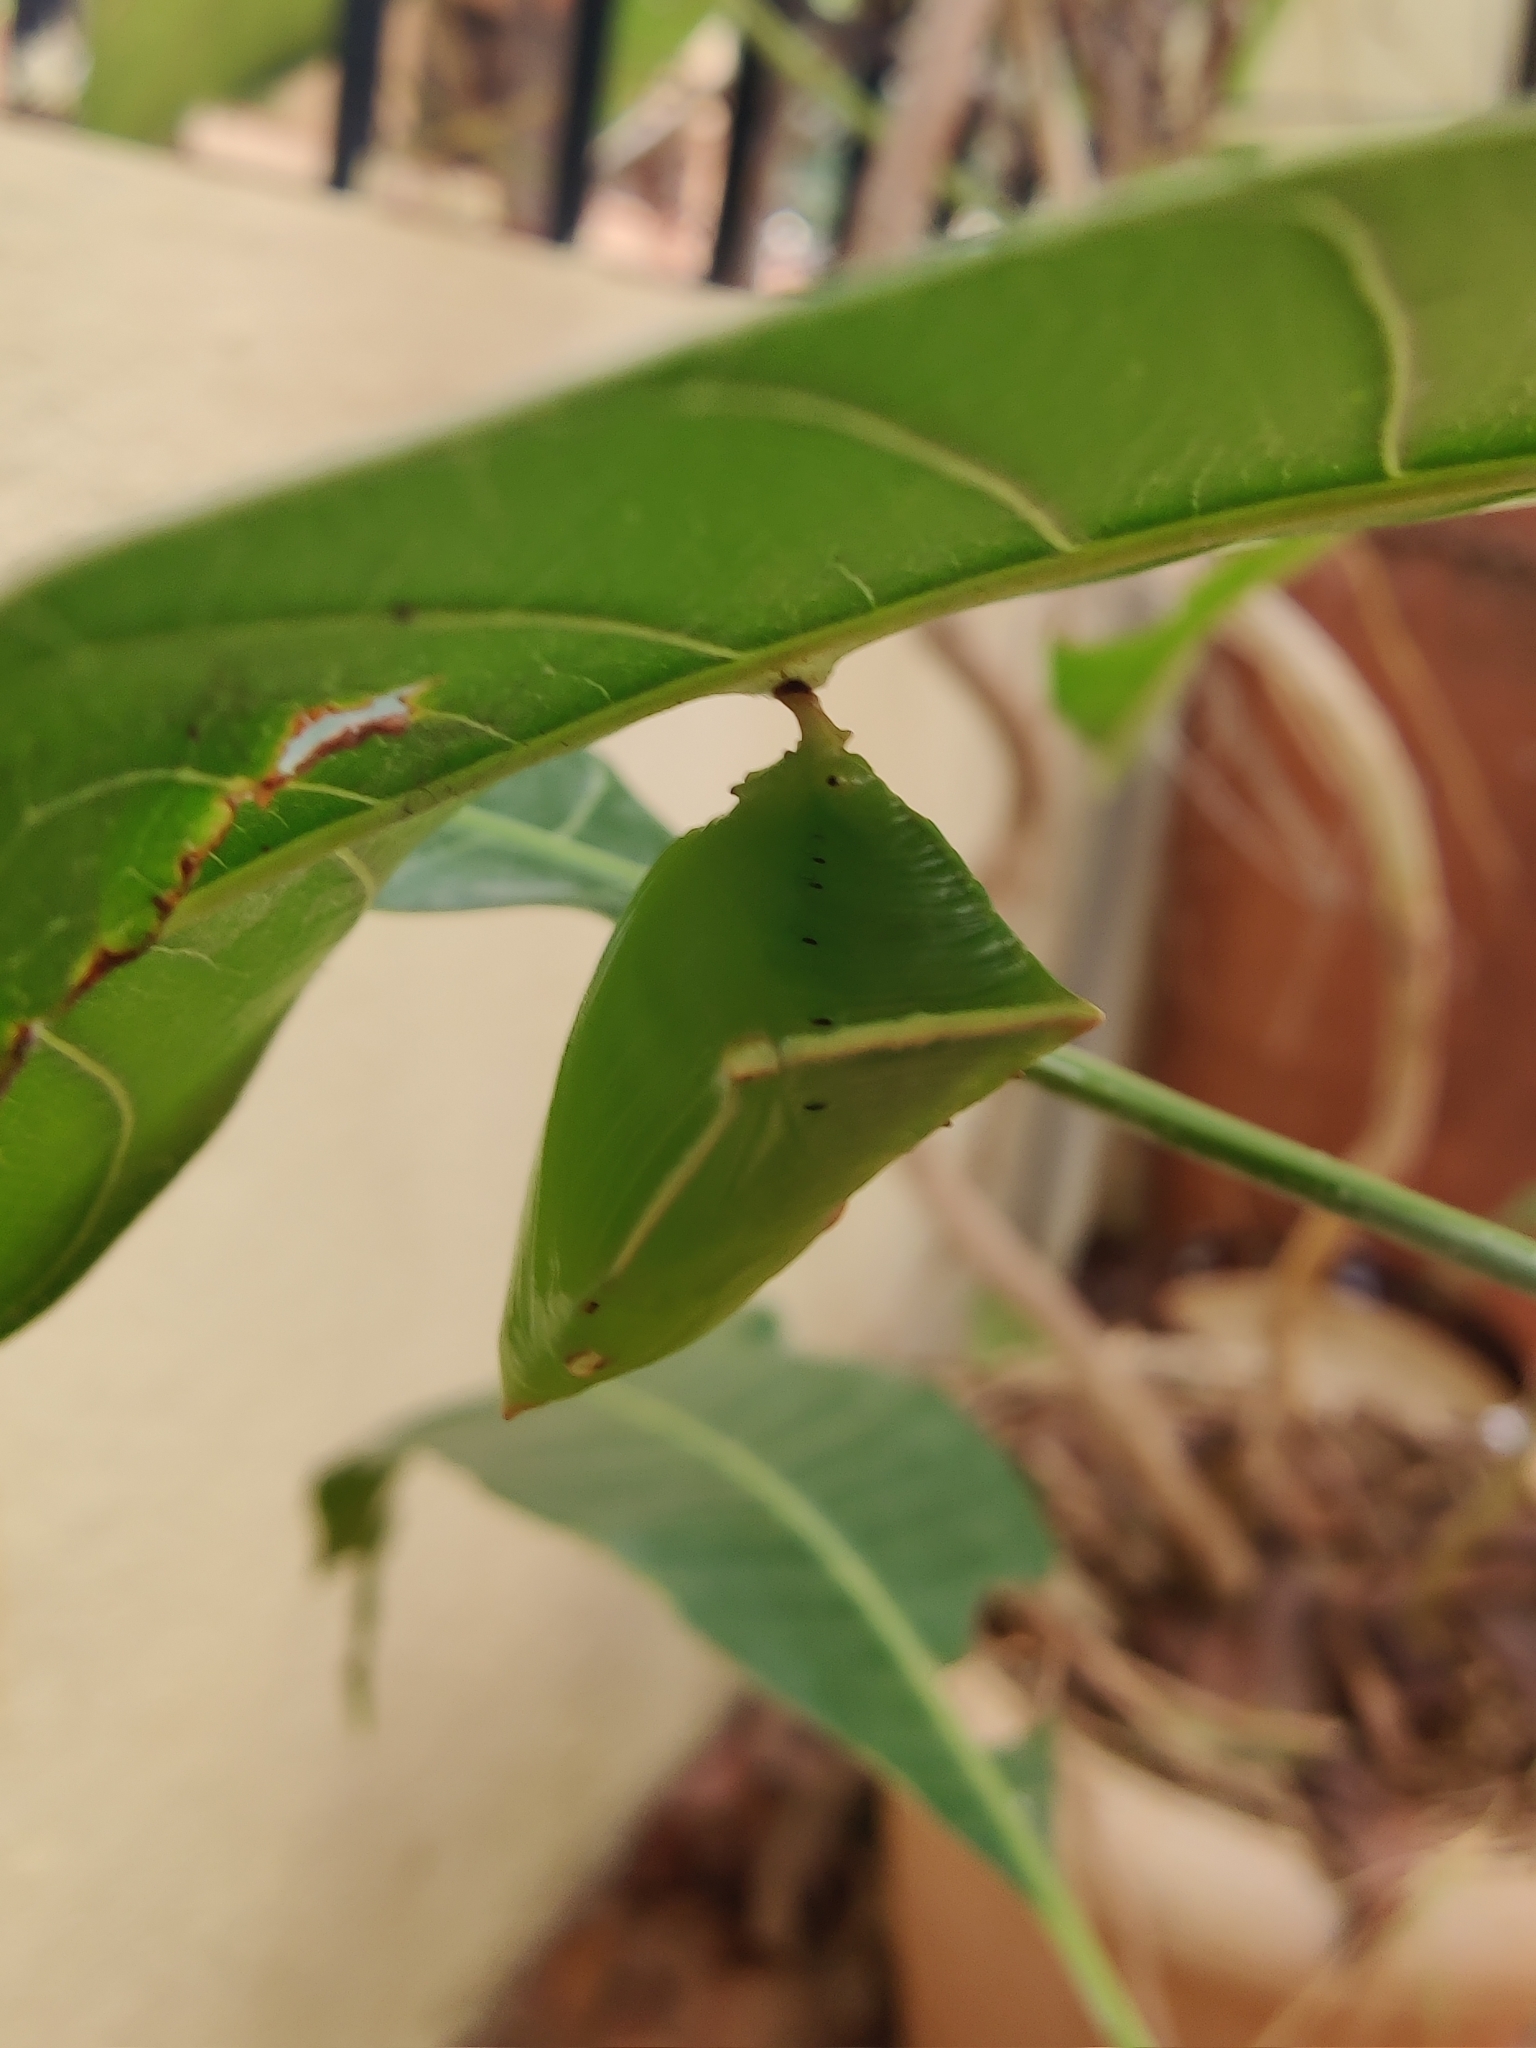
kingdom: Animalia
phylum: Arthropoda
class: Insecta
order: Lepidoptera
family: Nymphalidae
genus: Euthalia
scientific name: Euthalia aconthea
